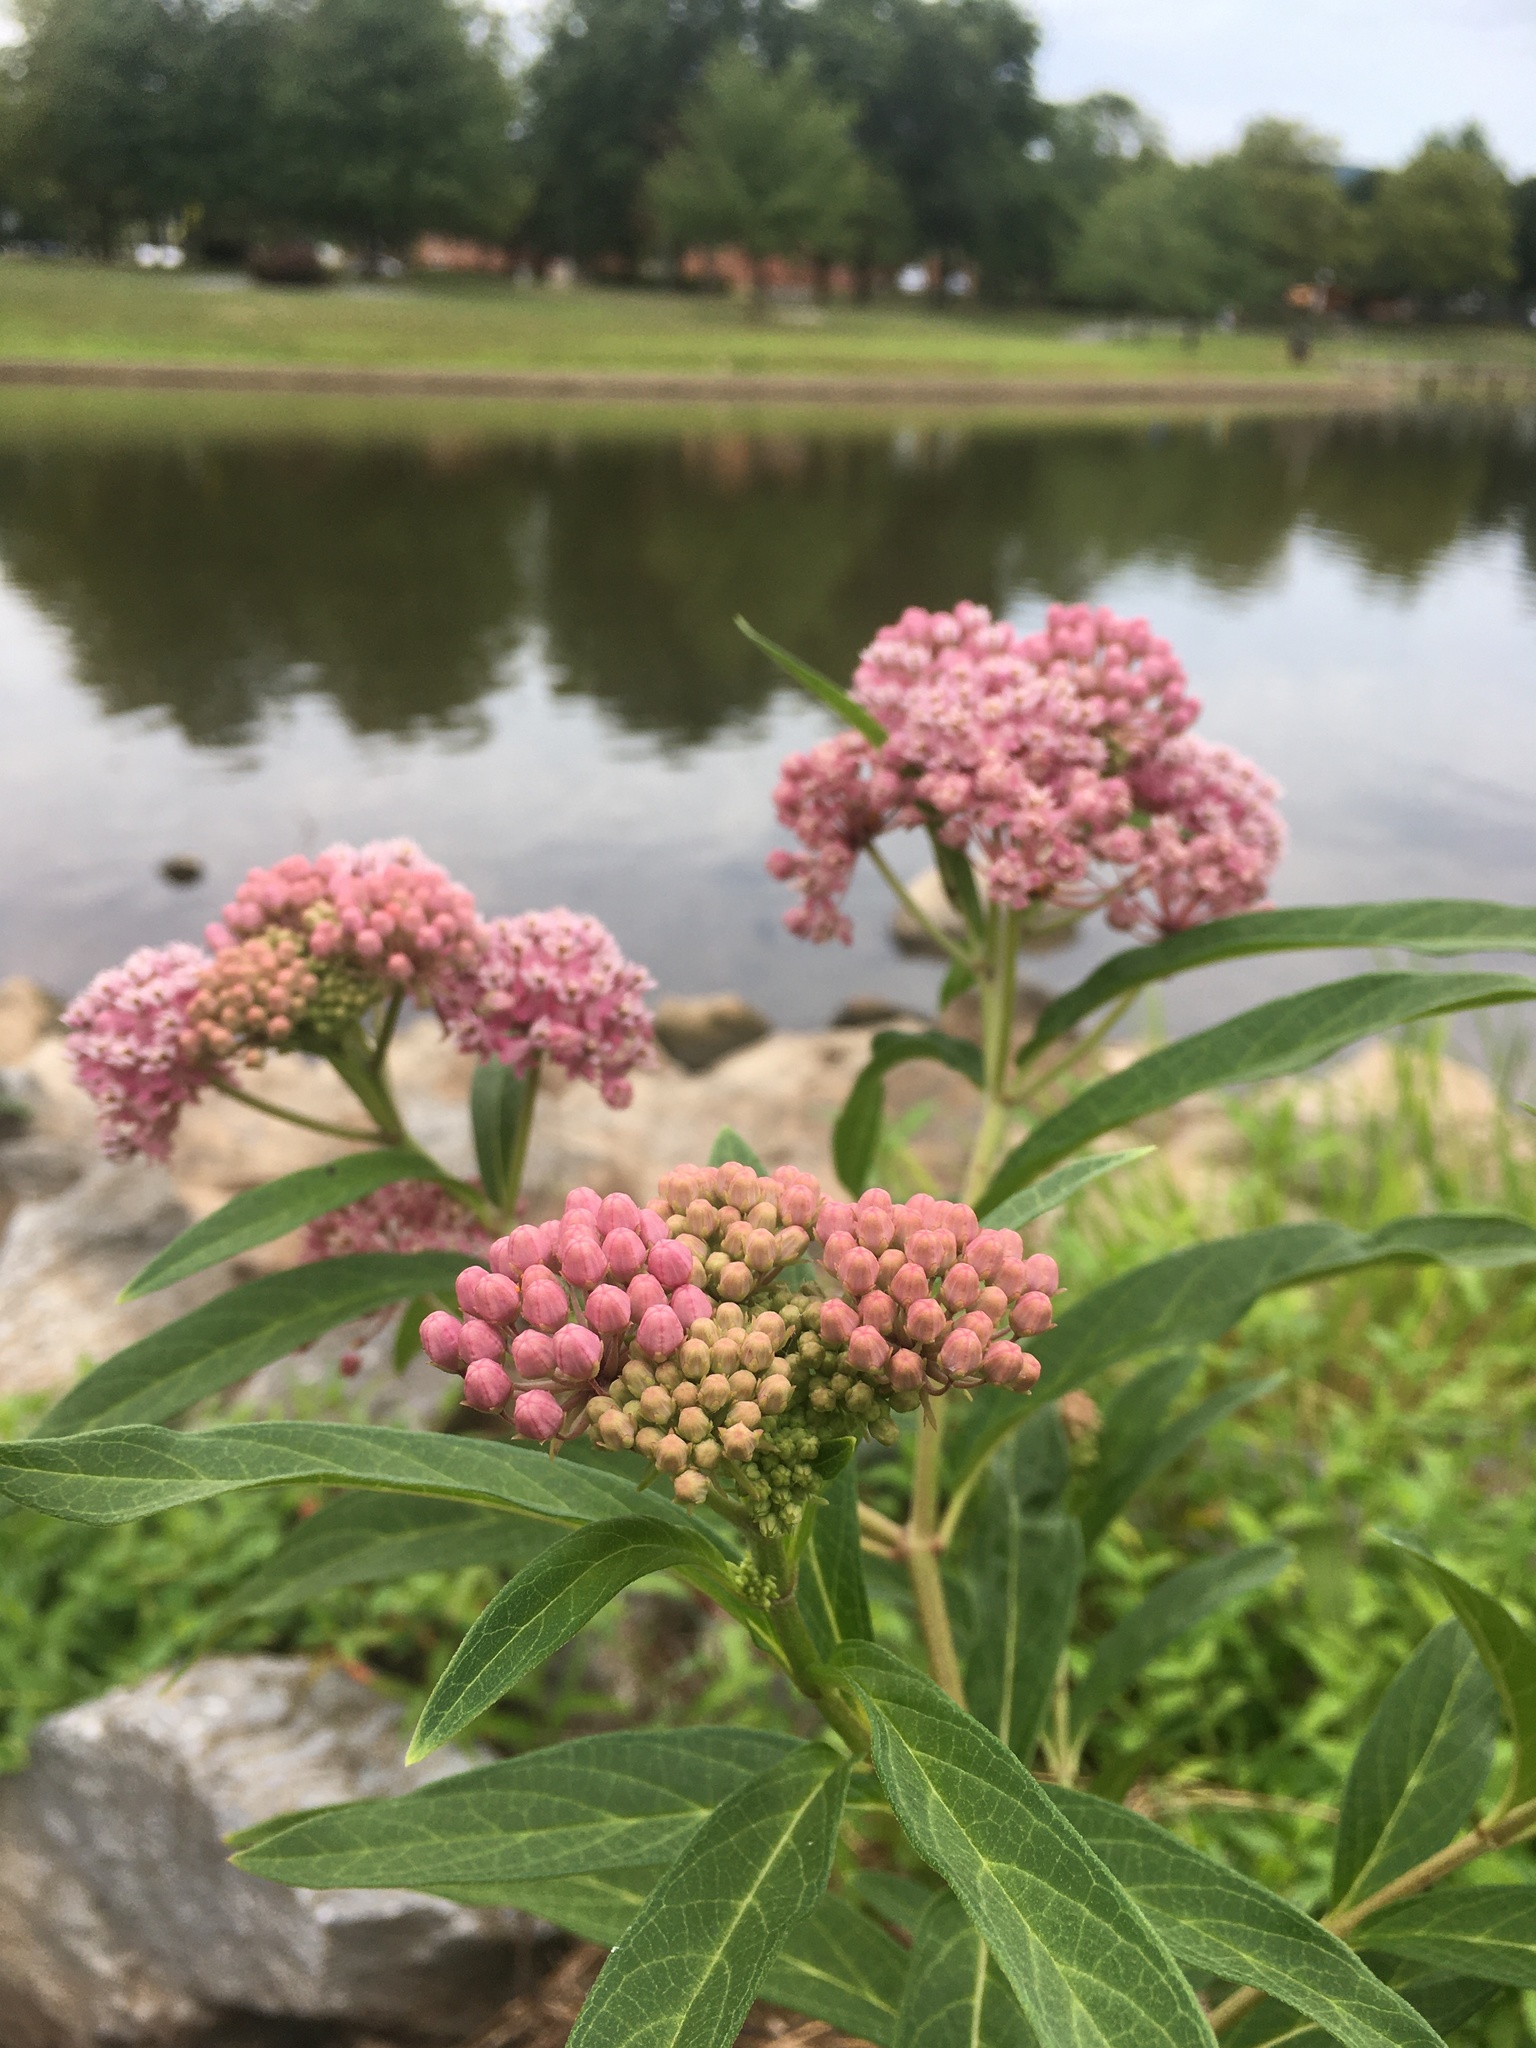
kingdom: Plantae
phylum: Tracheophyta
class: Magnoliopsida
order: Gentianales
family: Apocynaceae
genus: Asclepias
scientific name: Asclepias incarnata
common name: Swamp milkweed
